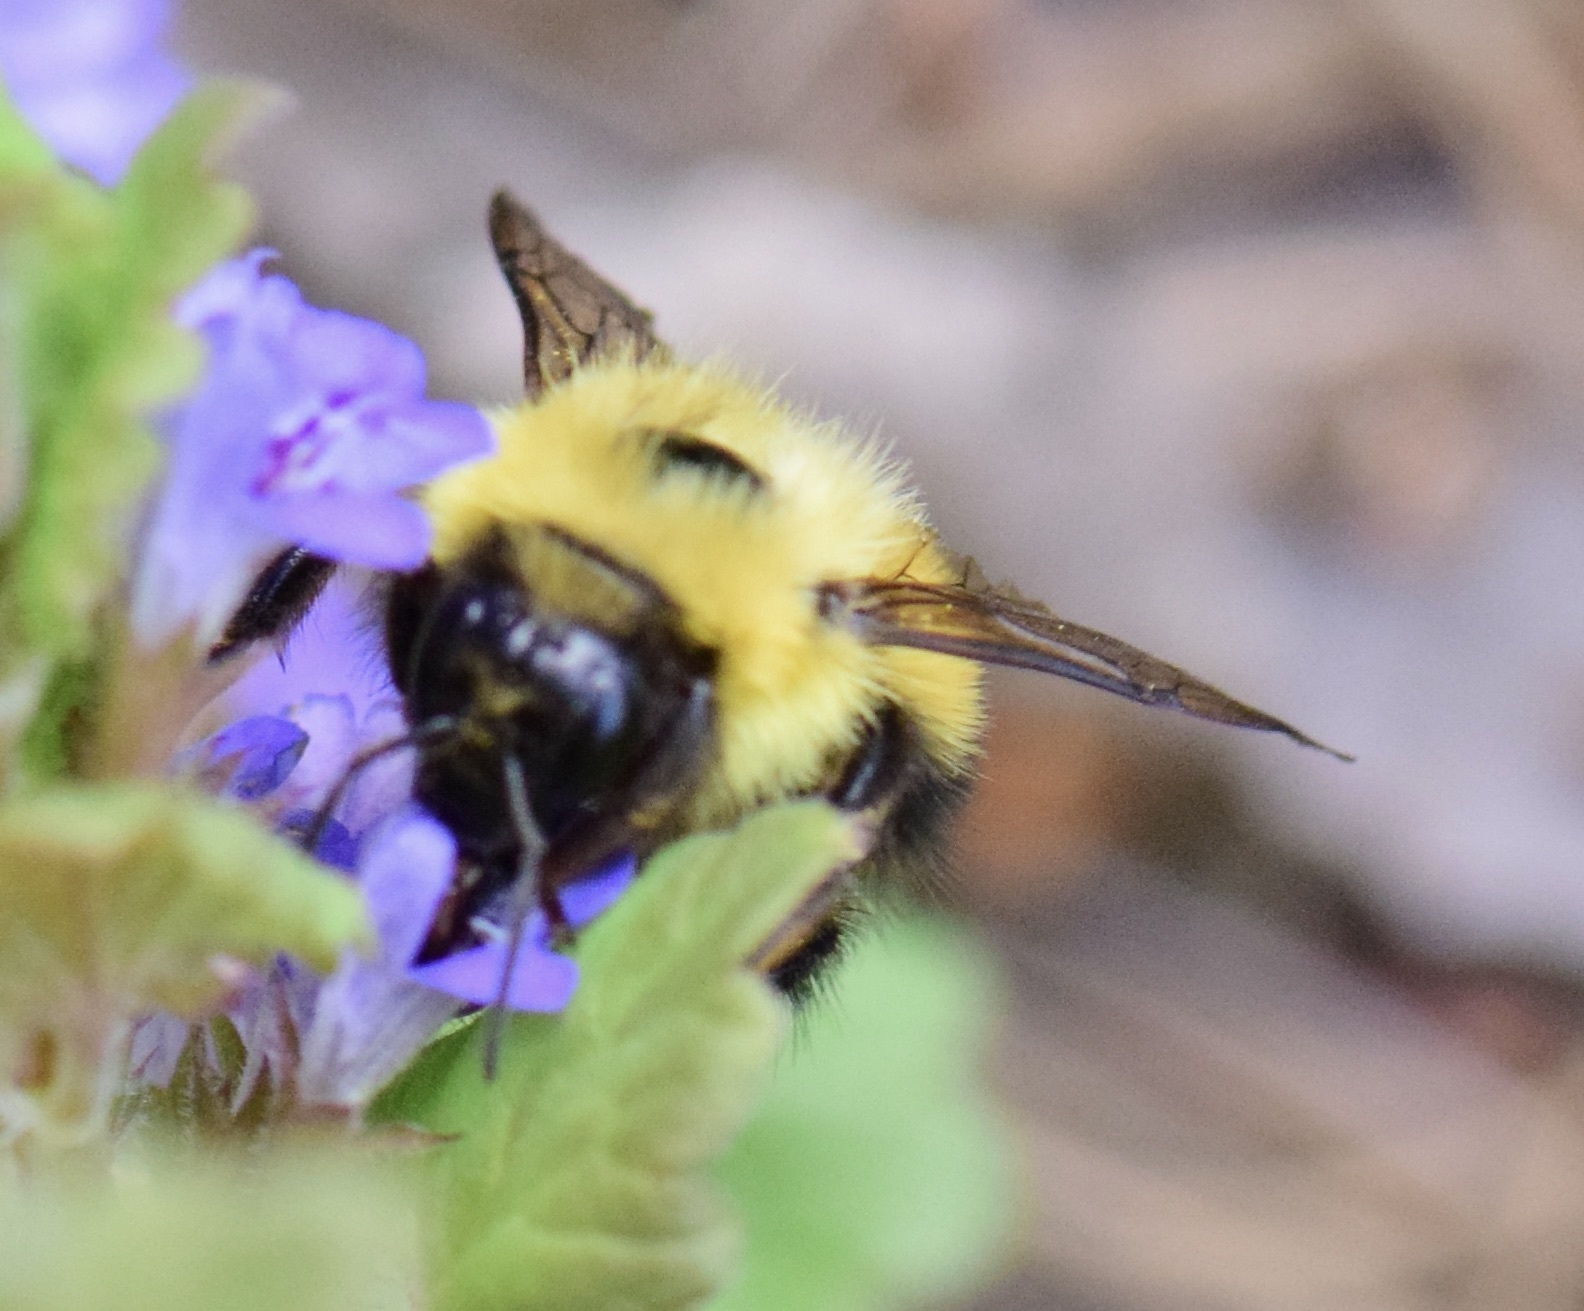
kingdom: Animalia
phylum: Arthropoda
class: Insecta
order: Hymenoptera
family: Apidae
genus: Bombus
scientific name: Bombus vagans
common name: Half-black bumble bee
